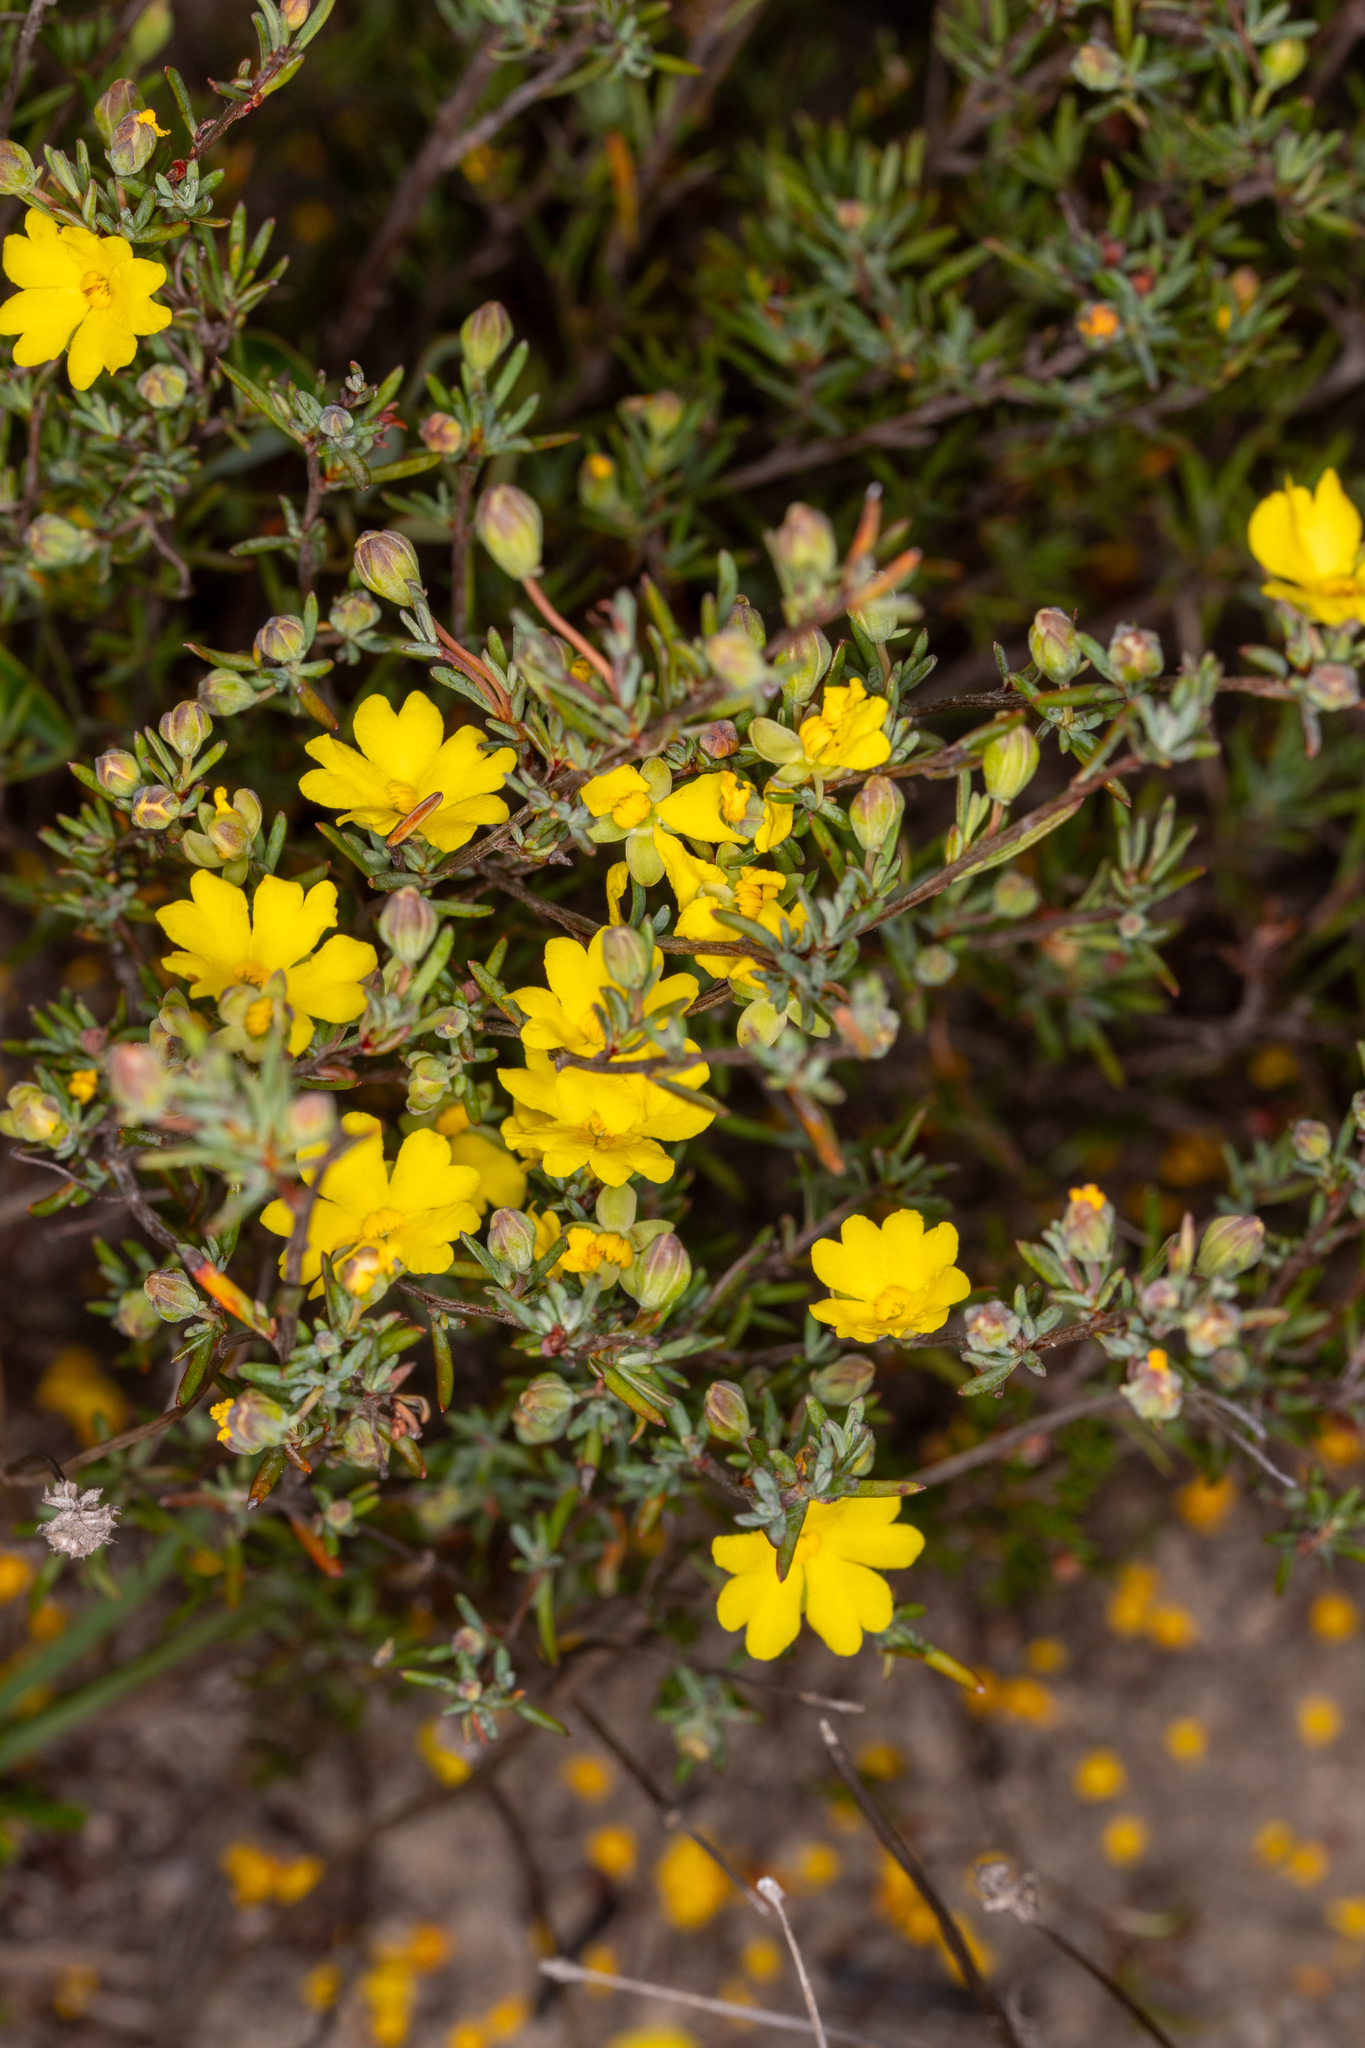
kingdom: Plantae
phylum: Tracheophyta
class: Magnoliopsida
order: Dilleniales
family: Dilleniaceae
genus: Hibbertia
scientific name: Hibbertia gracilipes
